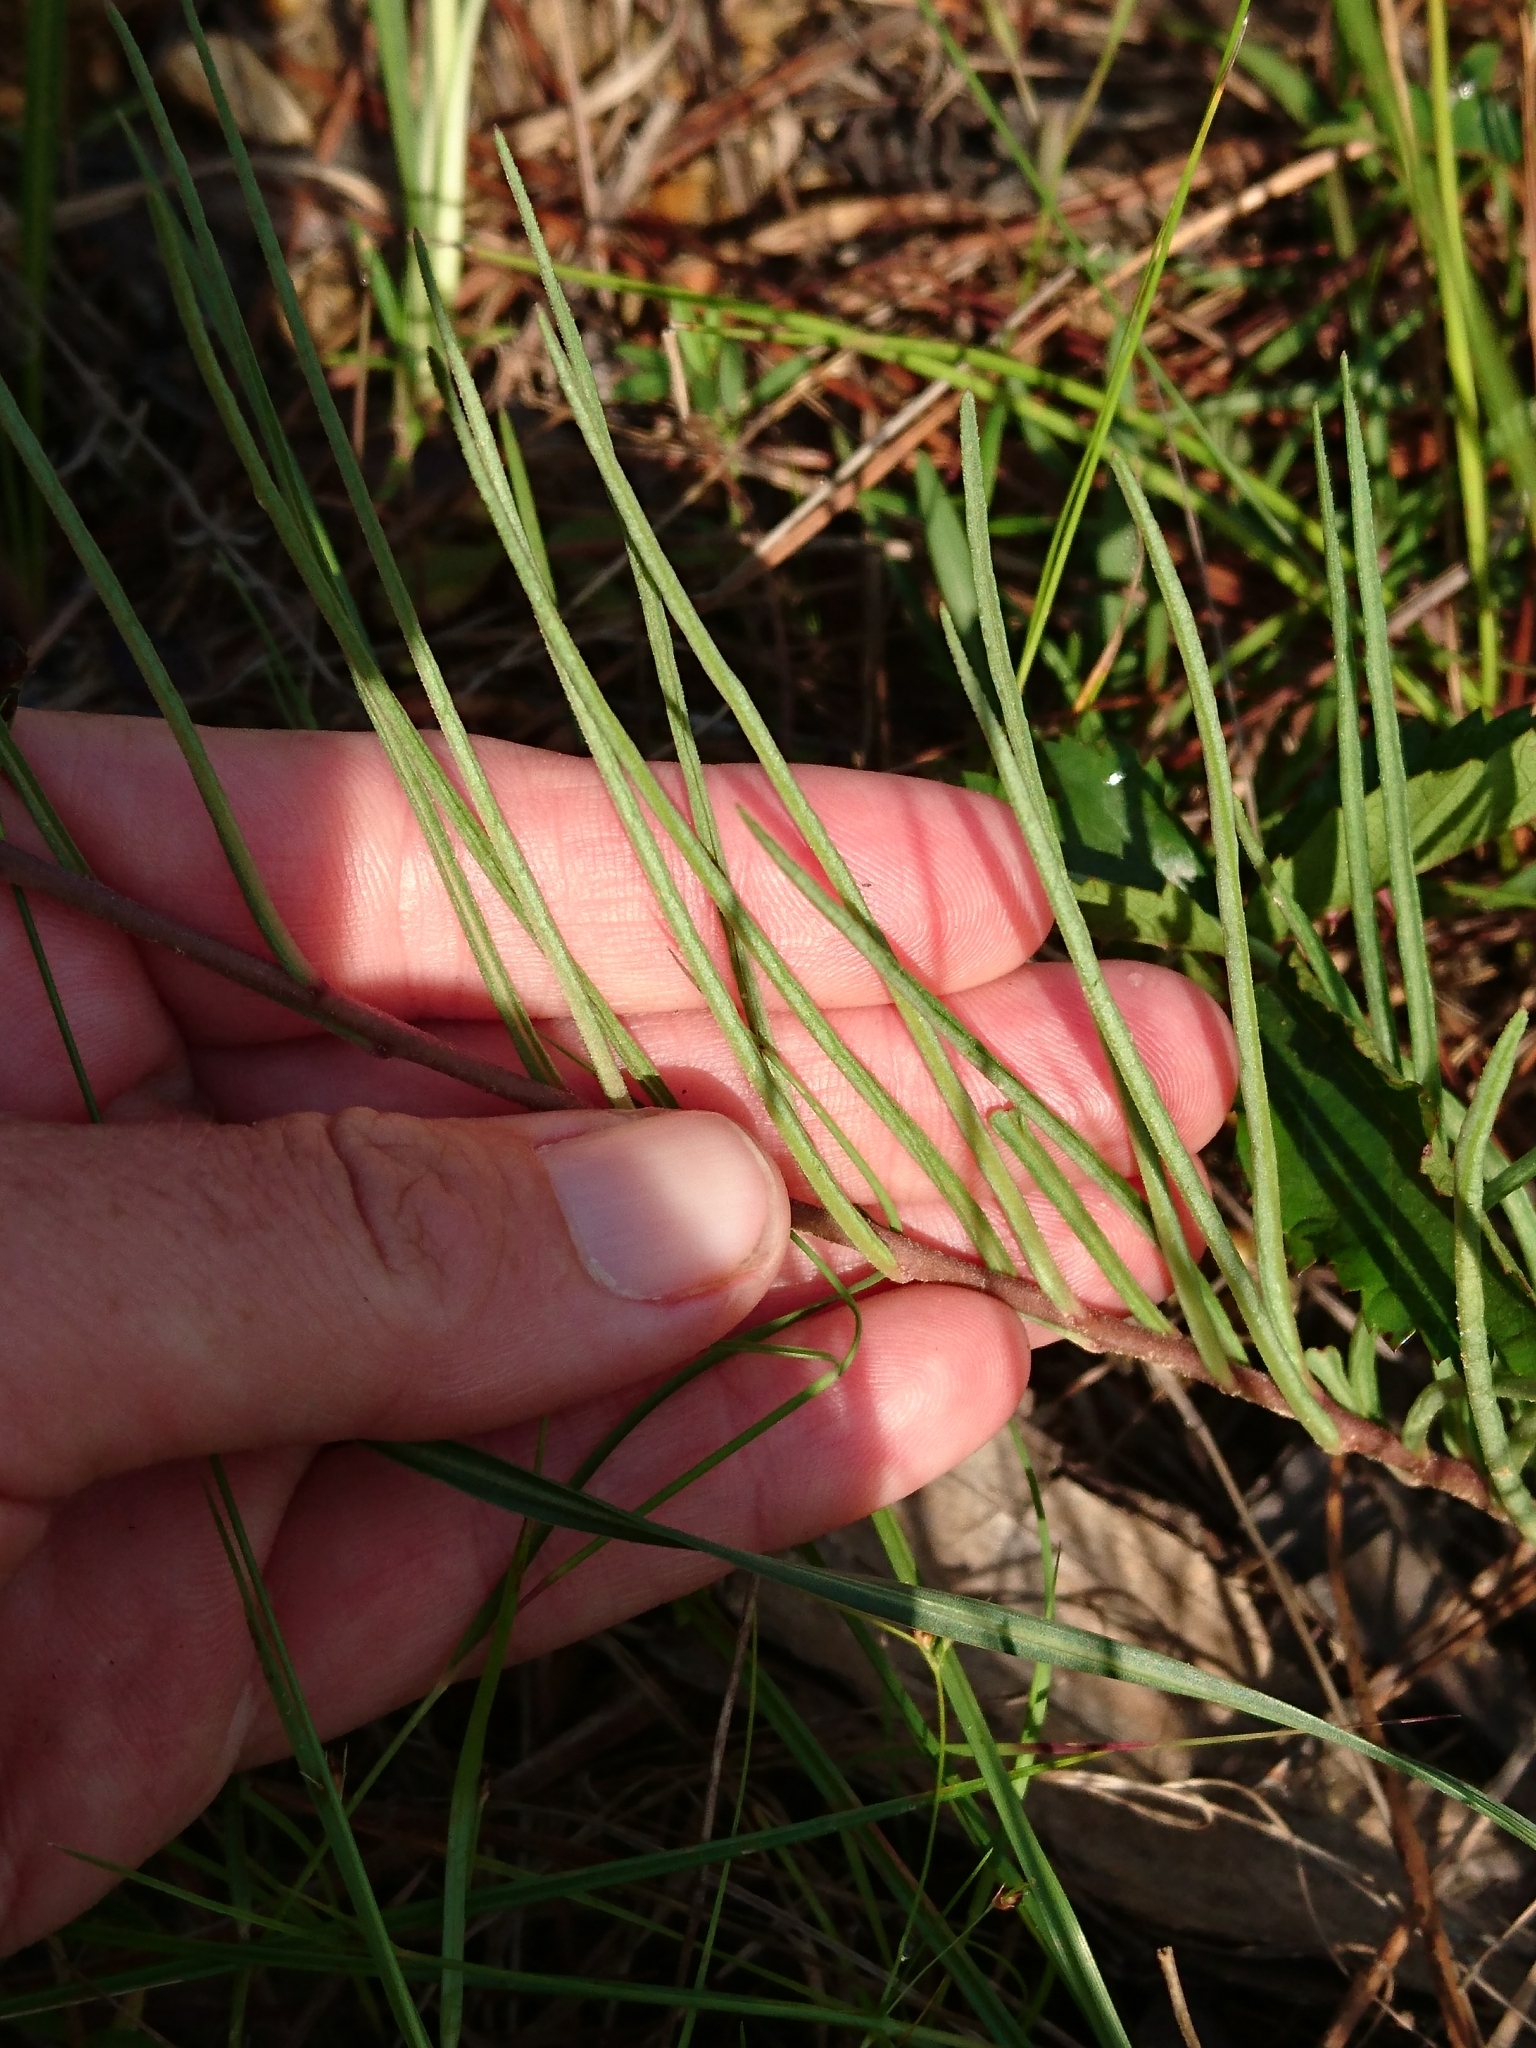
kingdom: Plantae
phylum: Tracheophyta
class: Magnoliopsida
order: Gentianales
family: Apocynaceae
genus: Asclepias
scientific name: Asclepias michauxii
